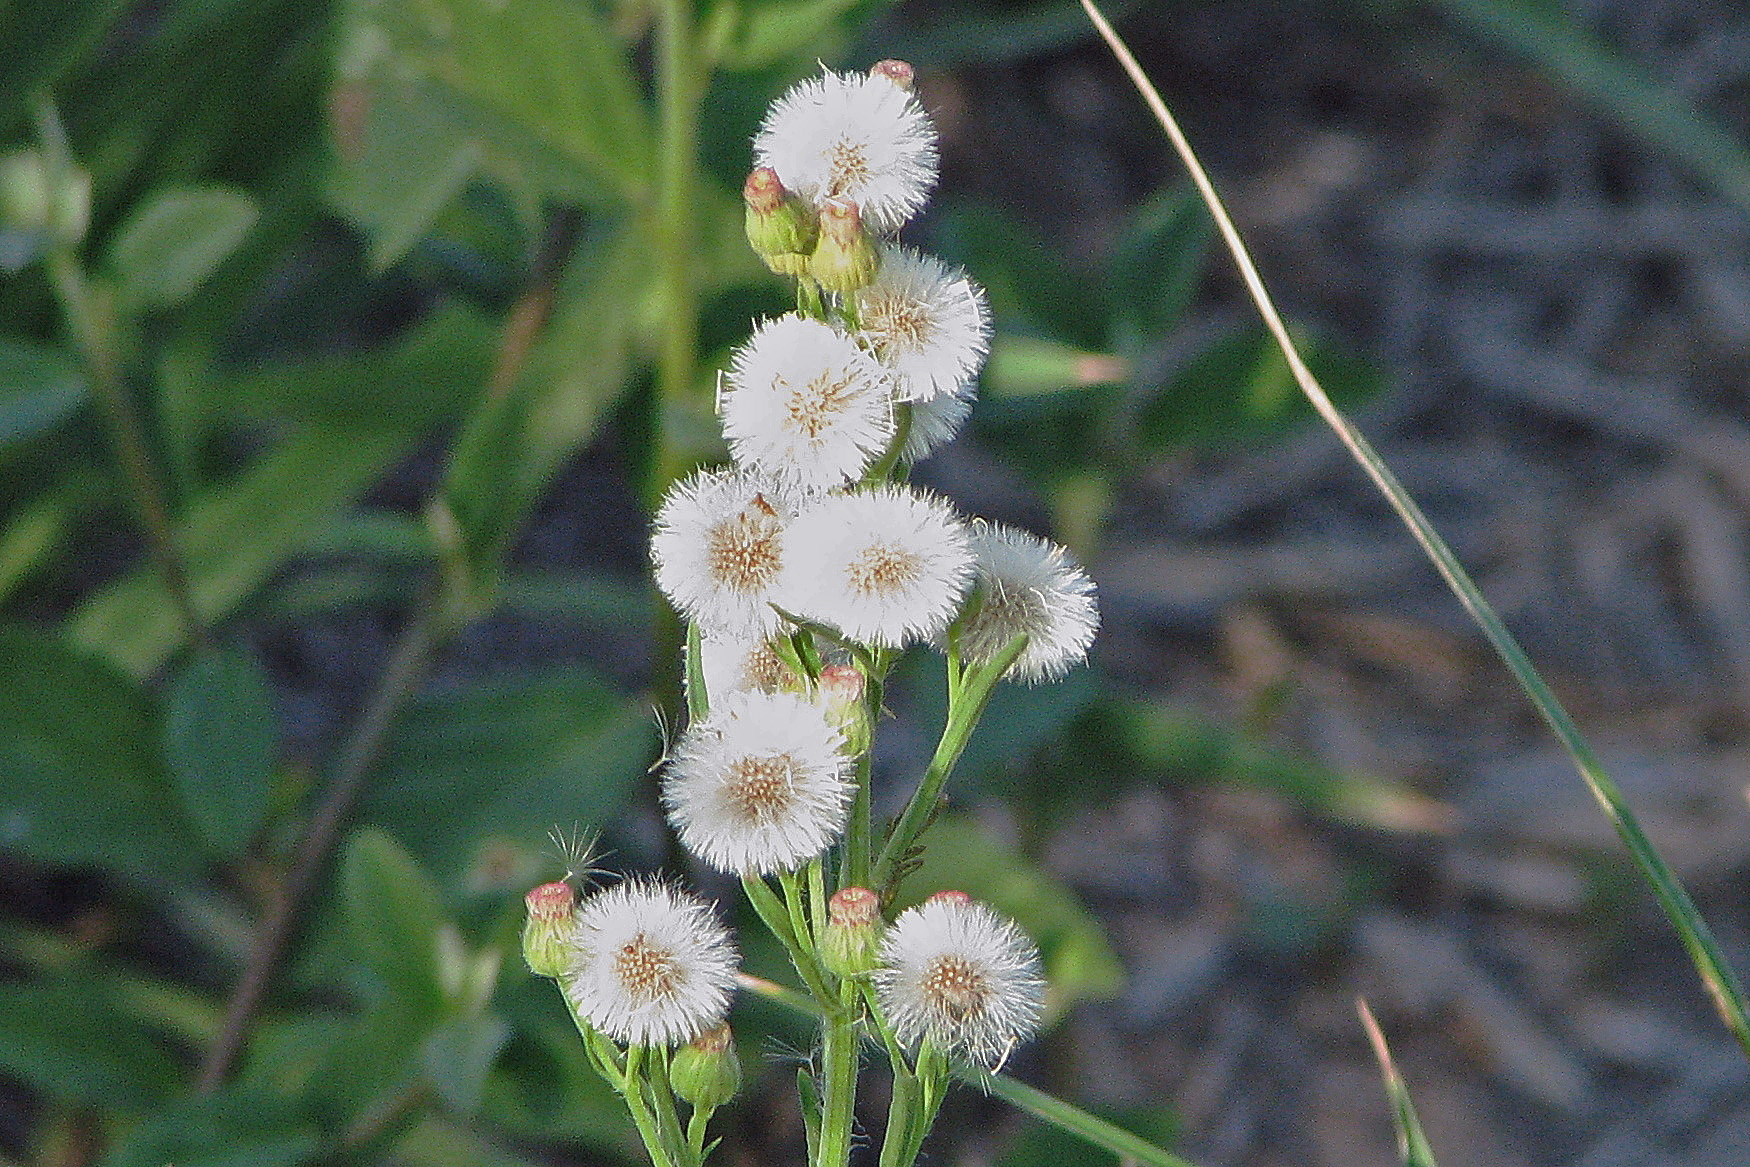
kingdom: Plantae
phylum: Tracheophyta
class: Magnoliopsida
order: Asterales
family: Asteraceae
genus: Erigeron
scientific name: Erigeron bonariensis
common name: Argentine fleabane
